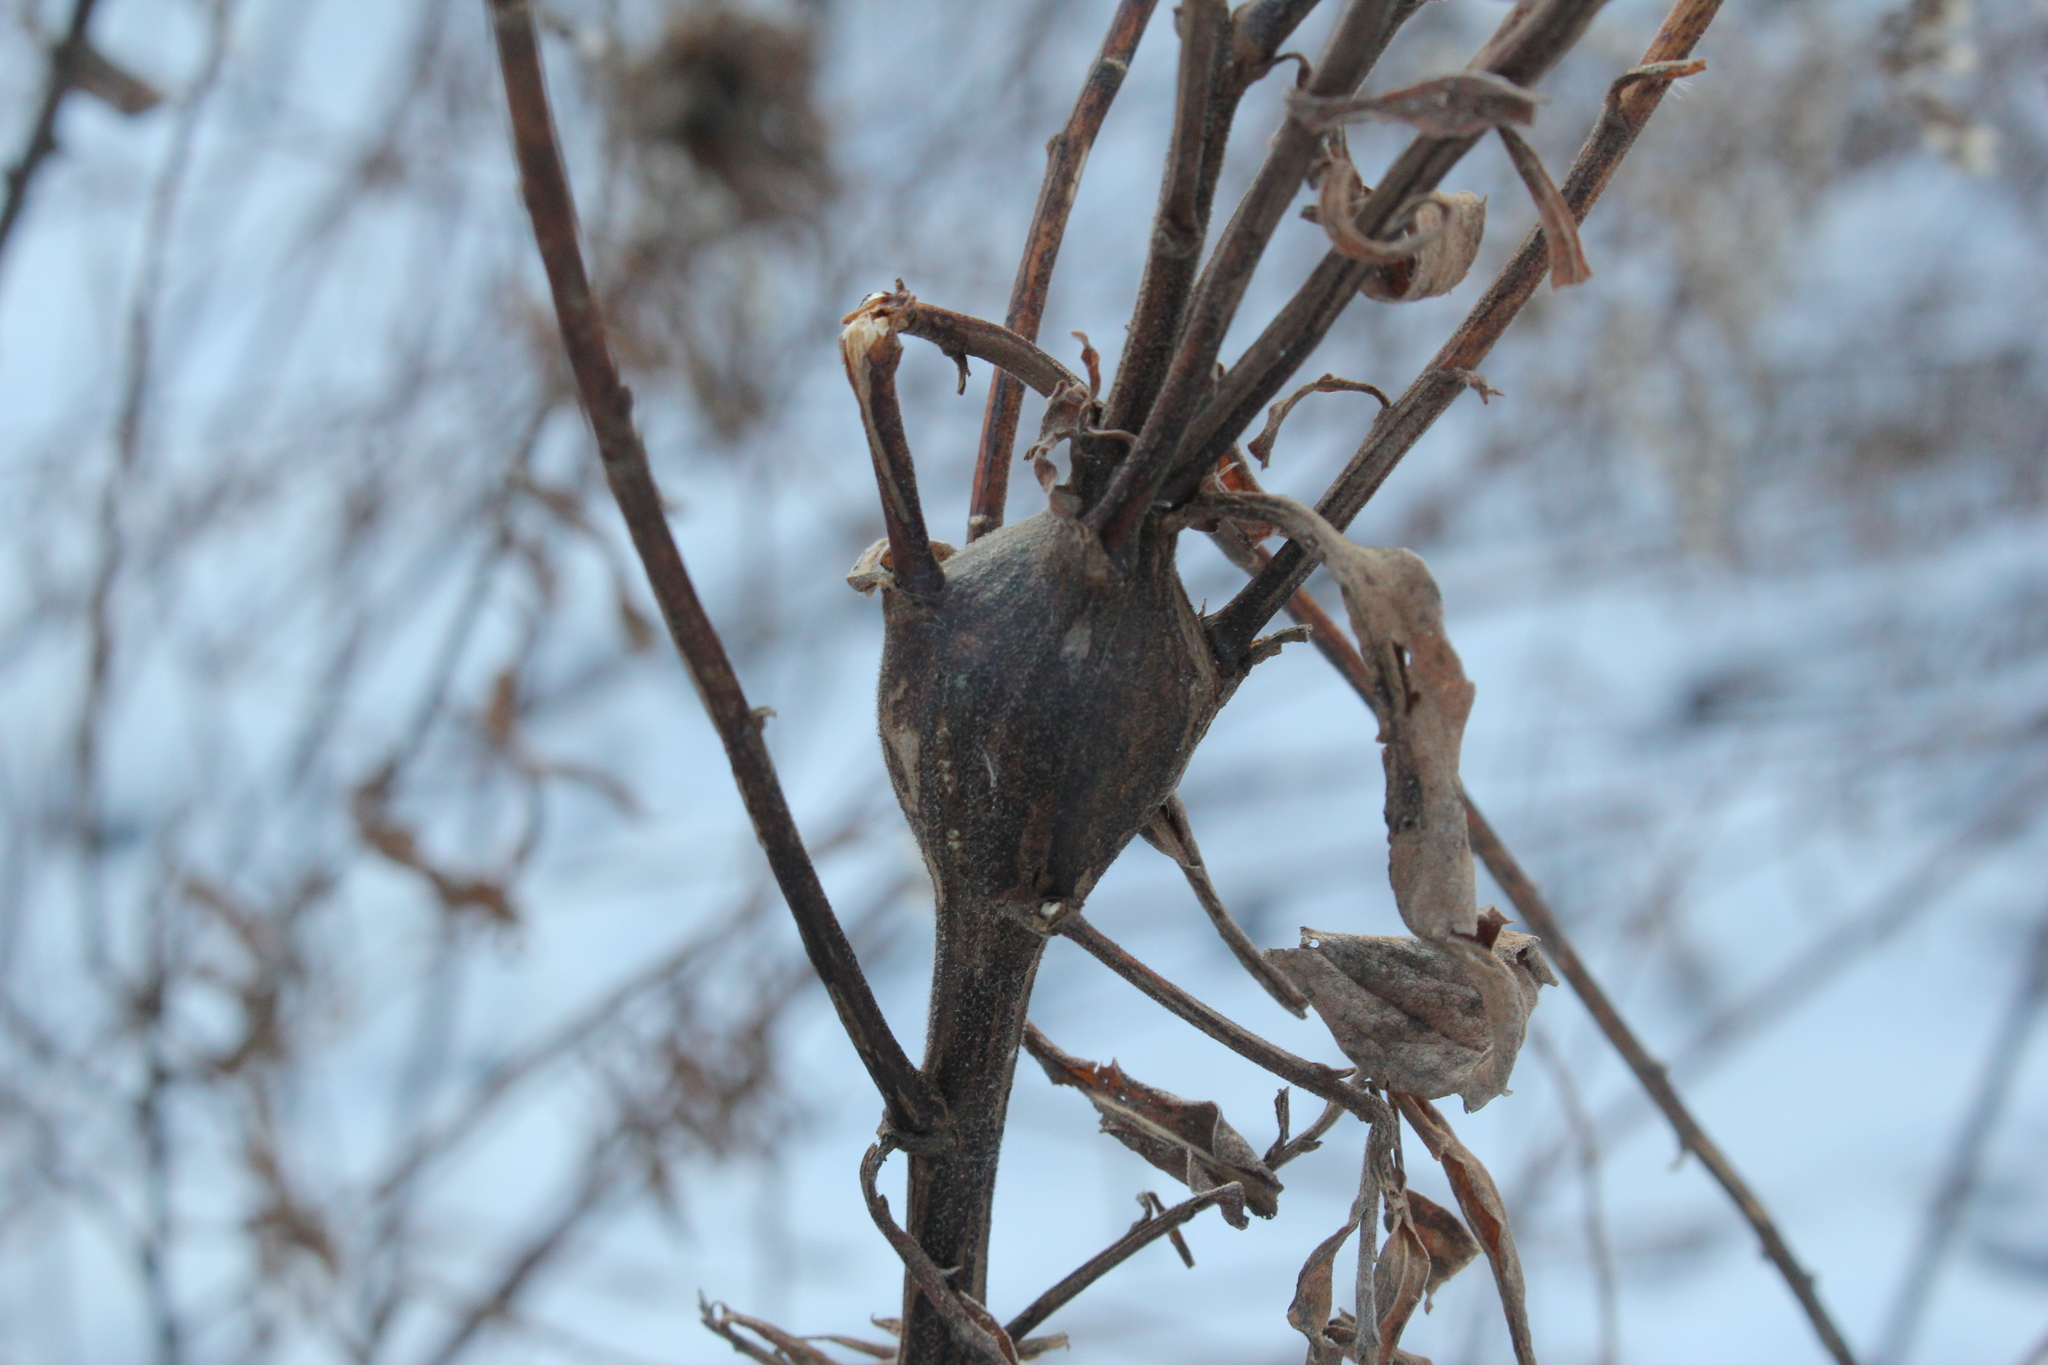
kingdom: Animalia
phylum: Arthropoda
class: Insecta
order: Diptera
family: Tephritidae
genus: Eurosta
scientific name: Eurosta solidaginis
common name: Goldenrod gall fly
